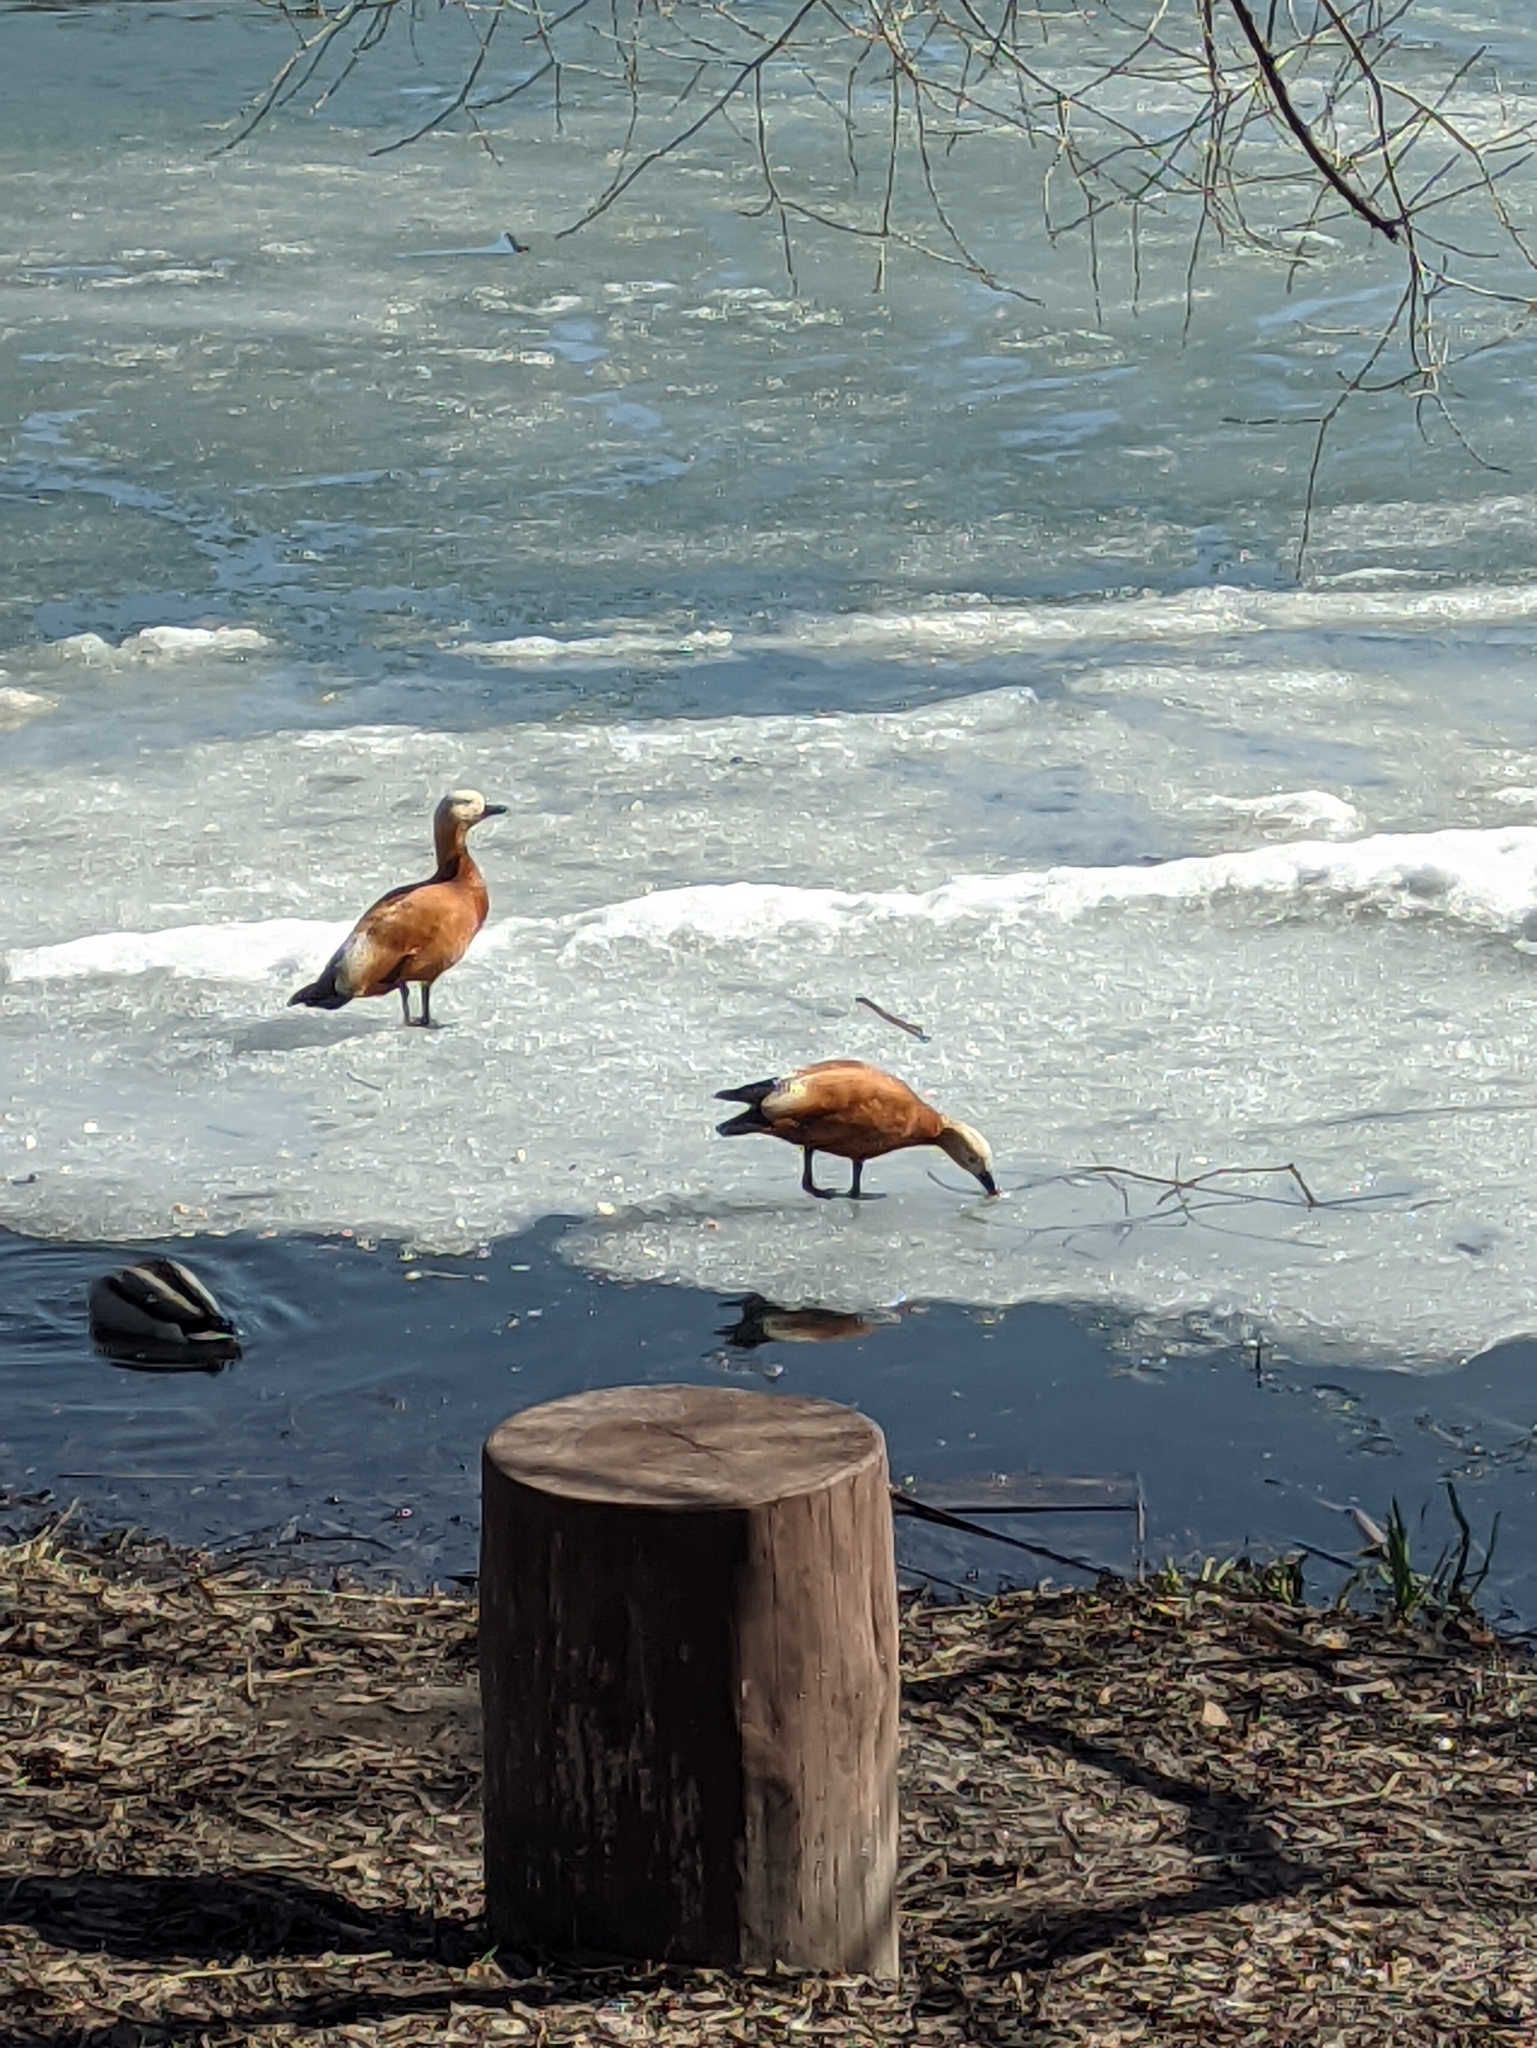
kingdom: Animalia
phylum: Chordata
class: Aves
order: Anseriformes
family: Anatidae
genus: Tadorna
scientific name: Tadorna ferruginea
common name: Ruddy shelduck
